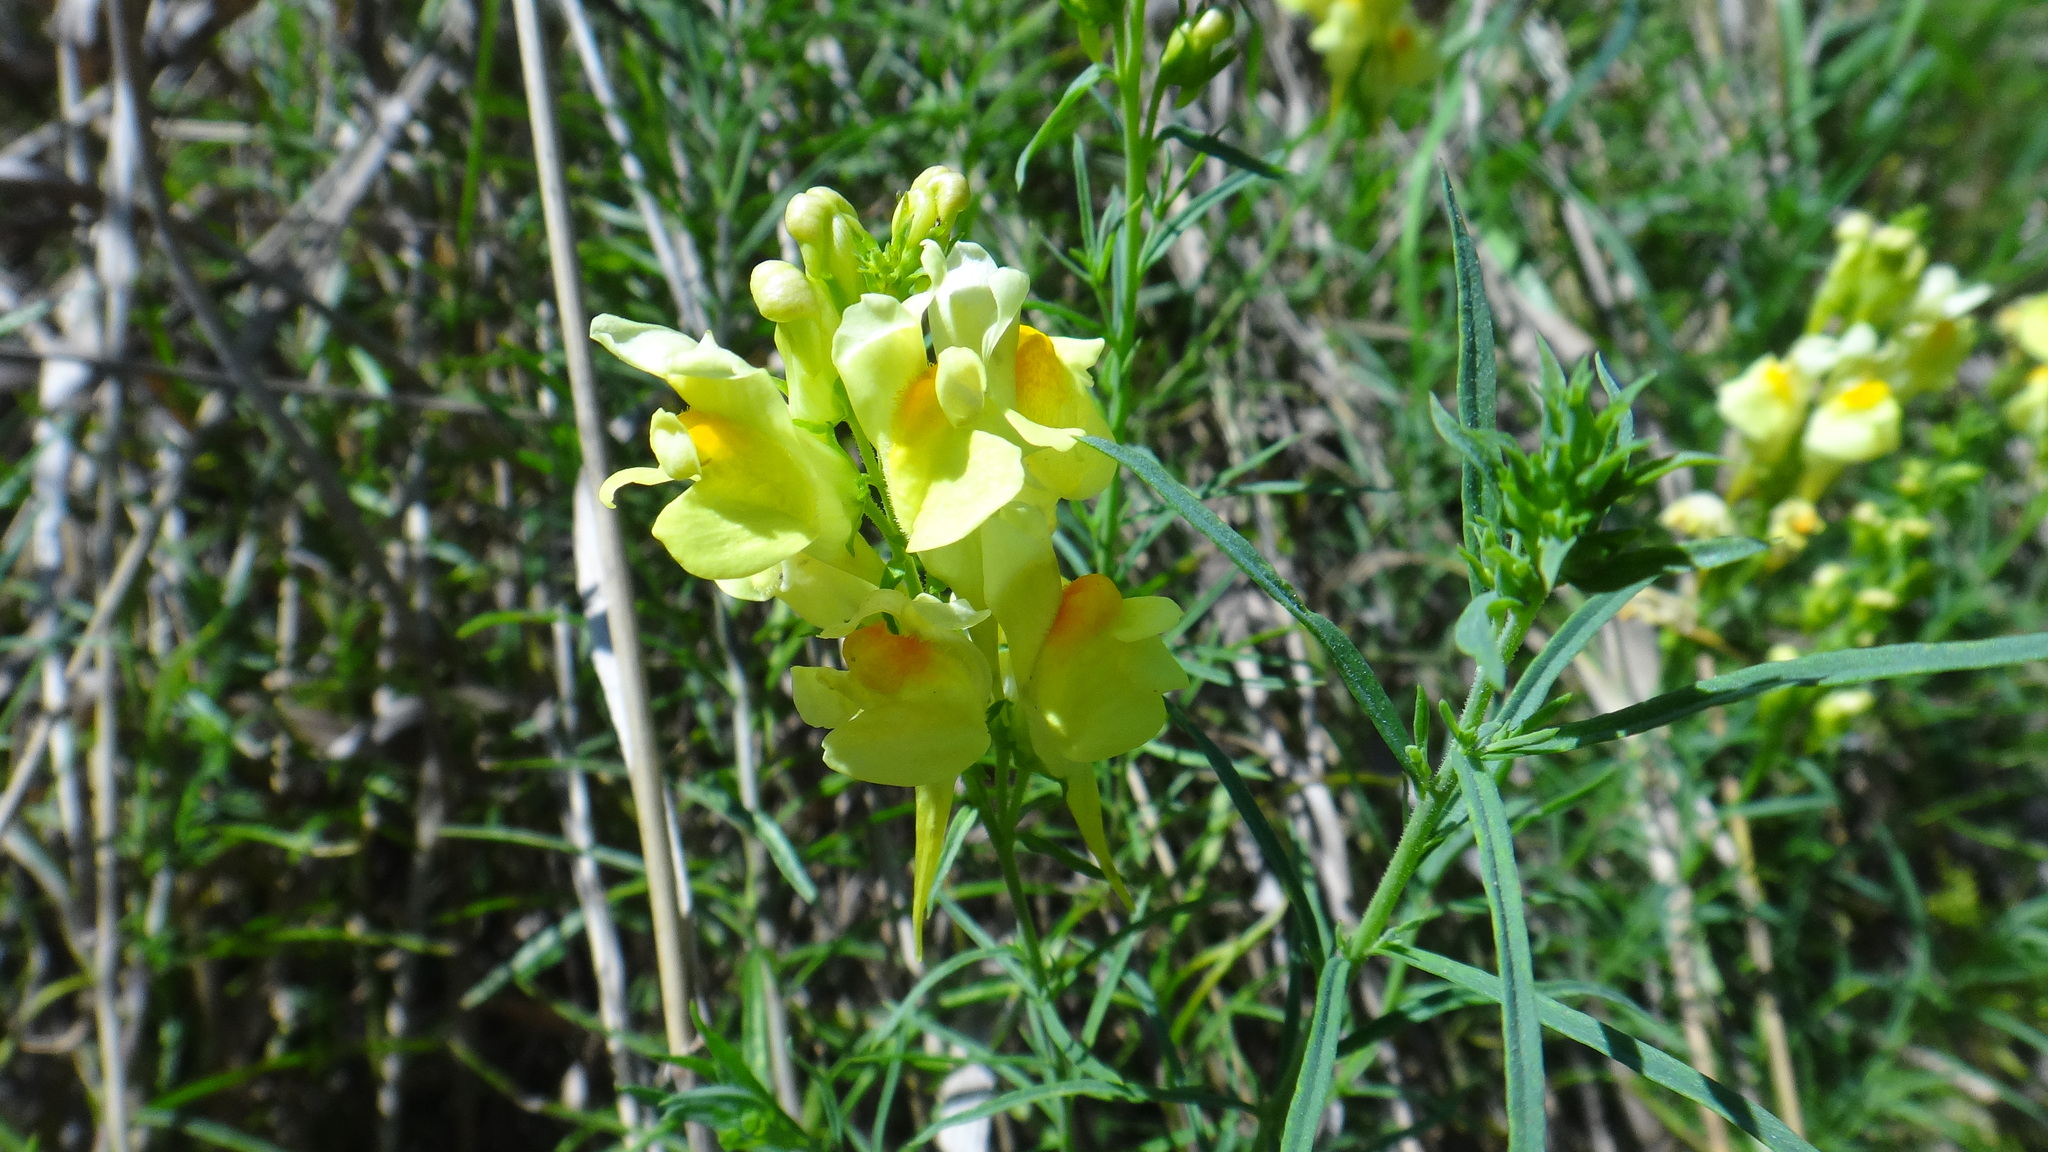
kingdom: Plantae
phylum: Tracheophyta
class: Magnoliopsida
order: Lamiales
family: Plantaginaceae
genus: Linaria
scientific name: Linaria vulgaris
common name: Butter and eggs
